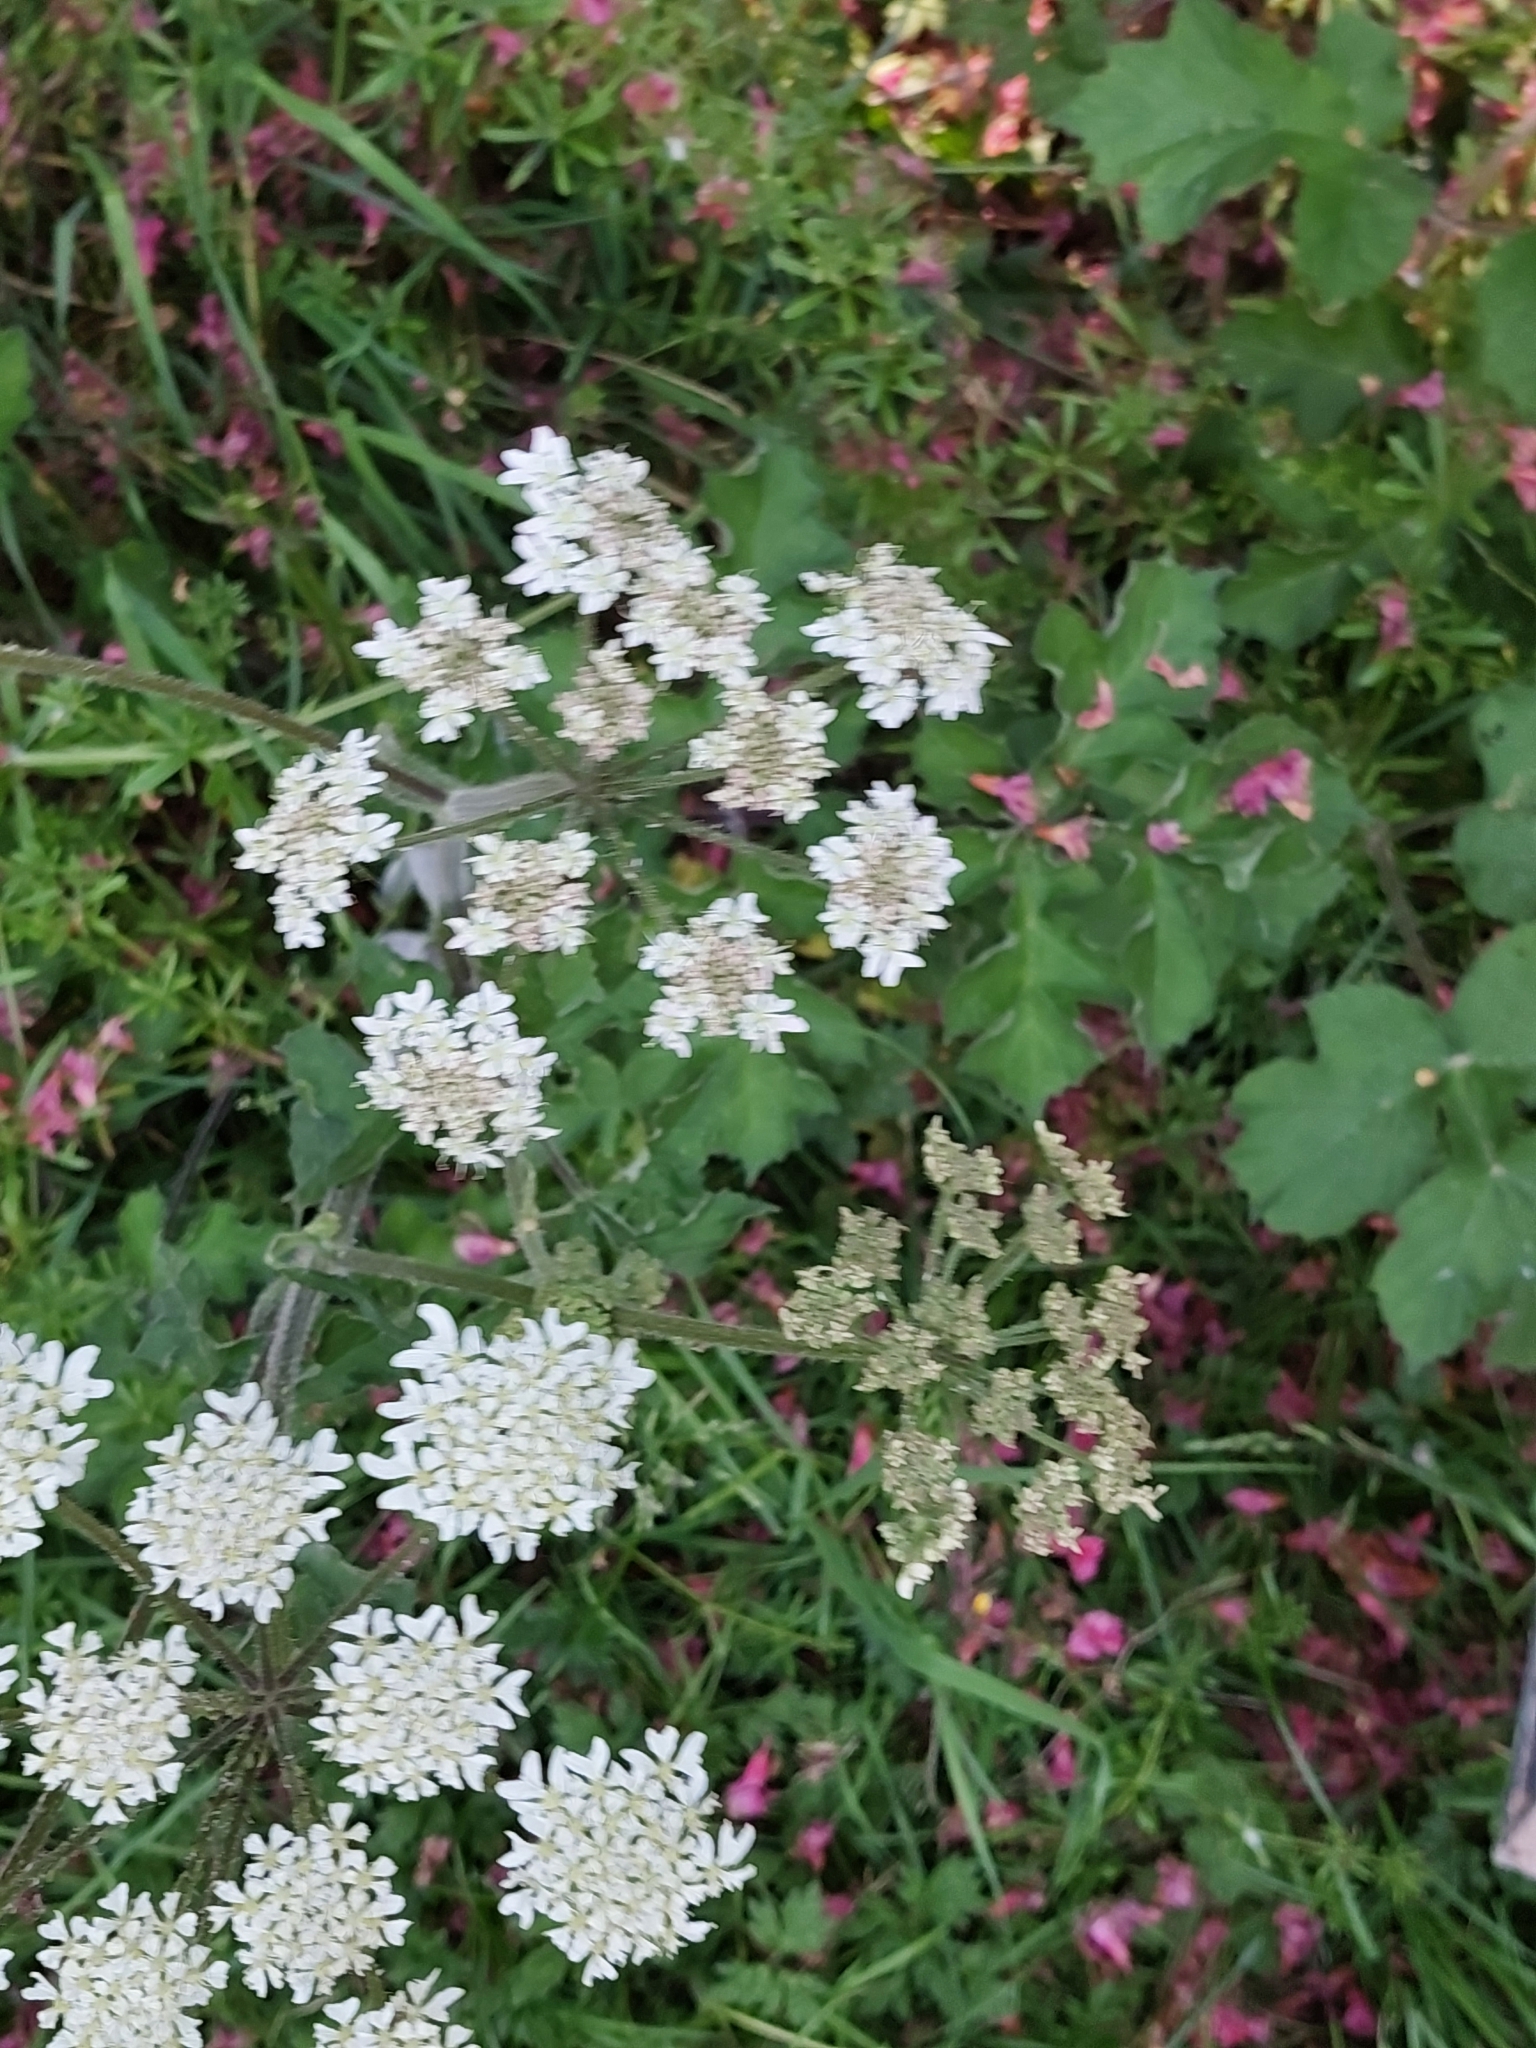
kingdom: Plantae
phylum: Tracheophyta
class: Magnoliopsida
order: Apiales
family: Apiaceae
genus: Heracleum
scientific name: Heracleum sphondylium
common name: Hogweed
